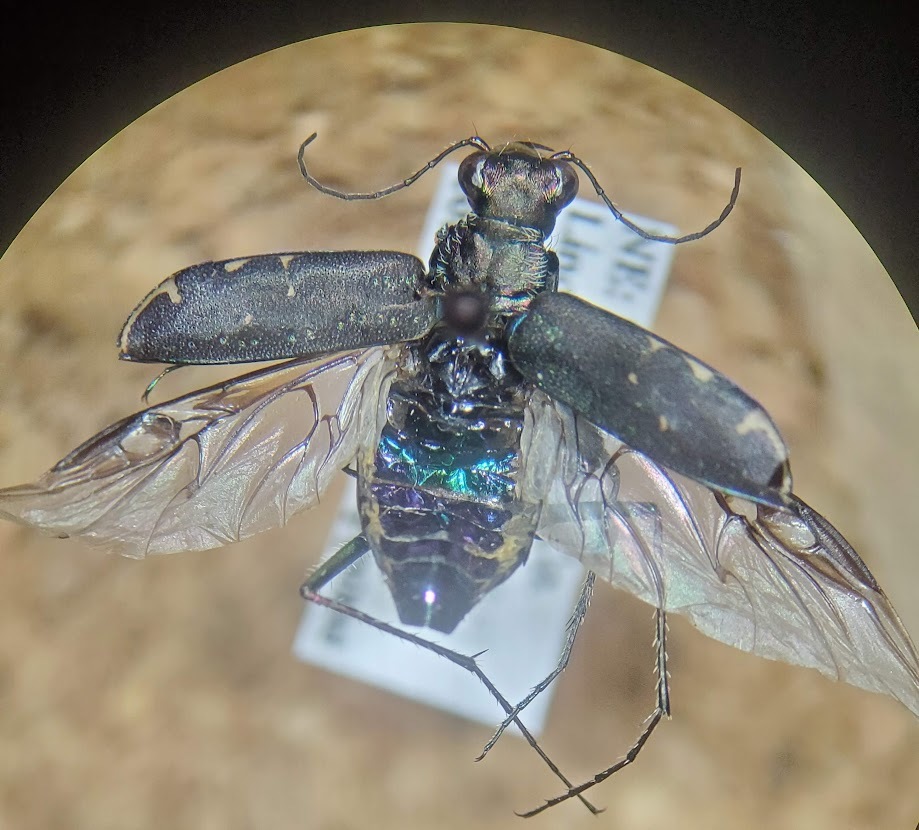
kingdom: Animalia
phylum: Arthropoda
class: Insecta
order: Coleoptera
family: Carabidae
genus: Cicindela
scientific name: Cicindela punctulata
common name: Punctured tiger beetle
